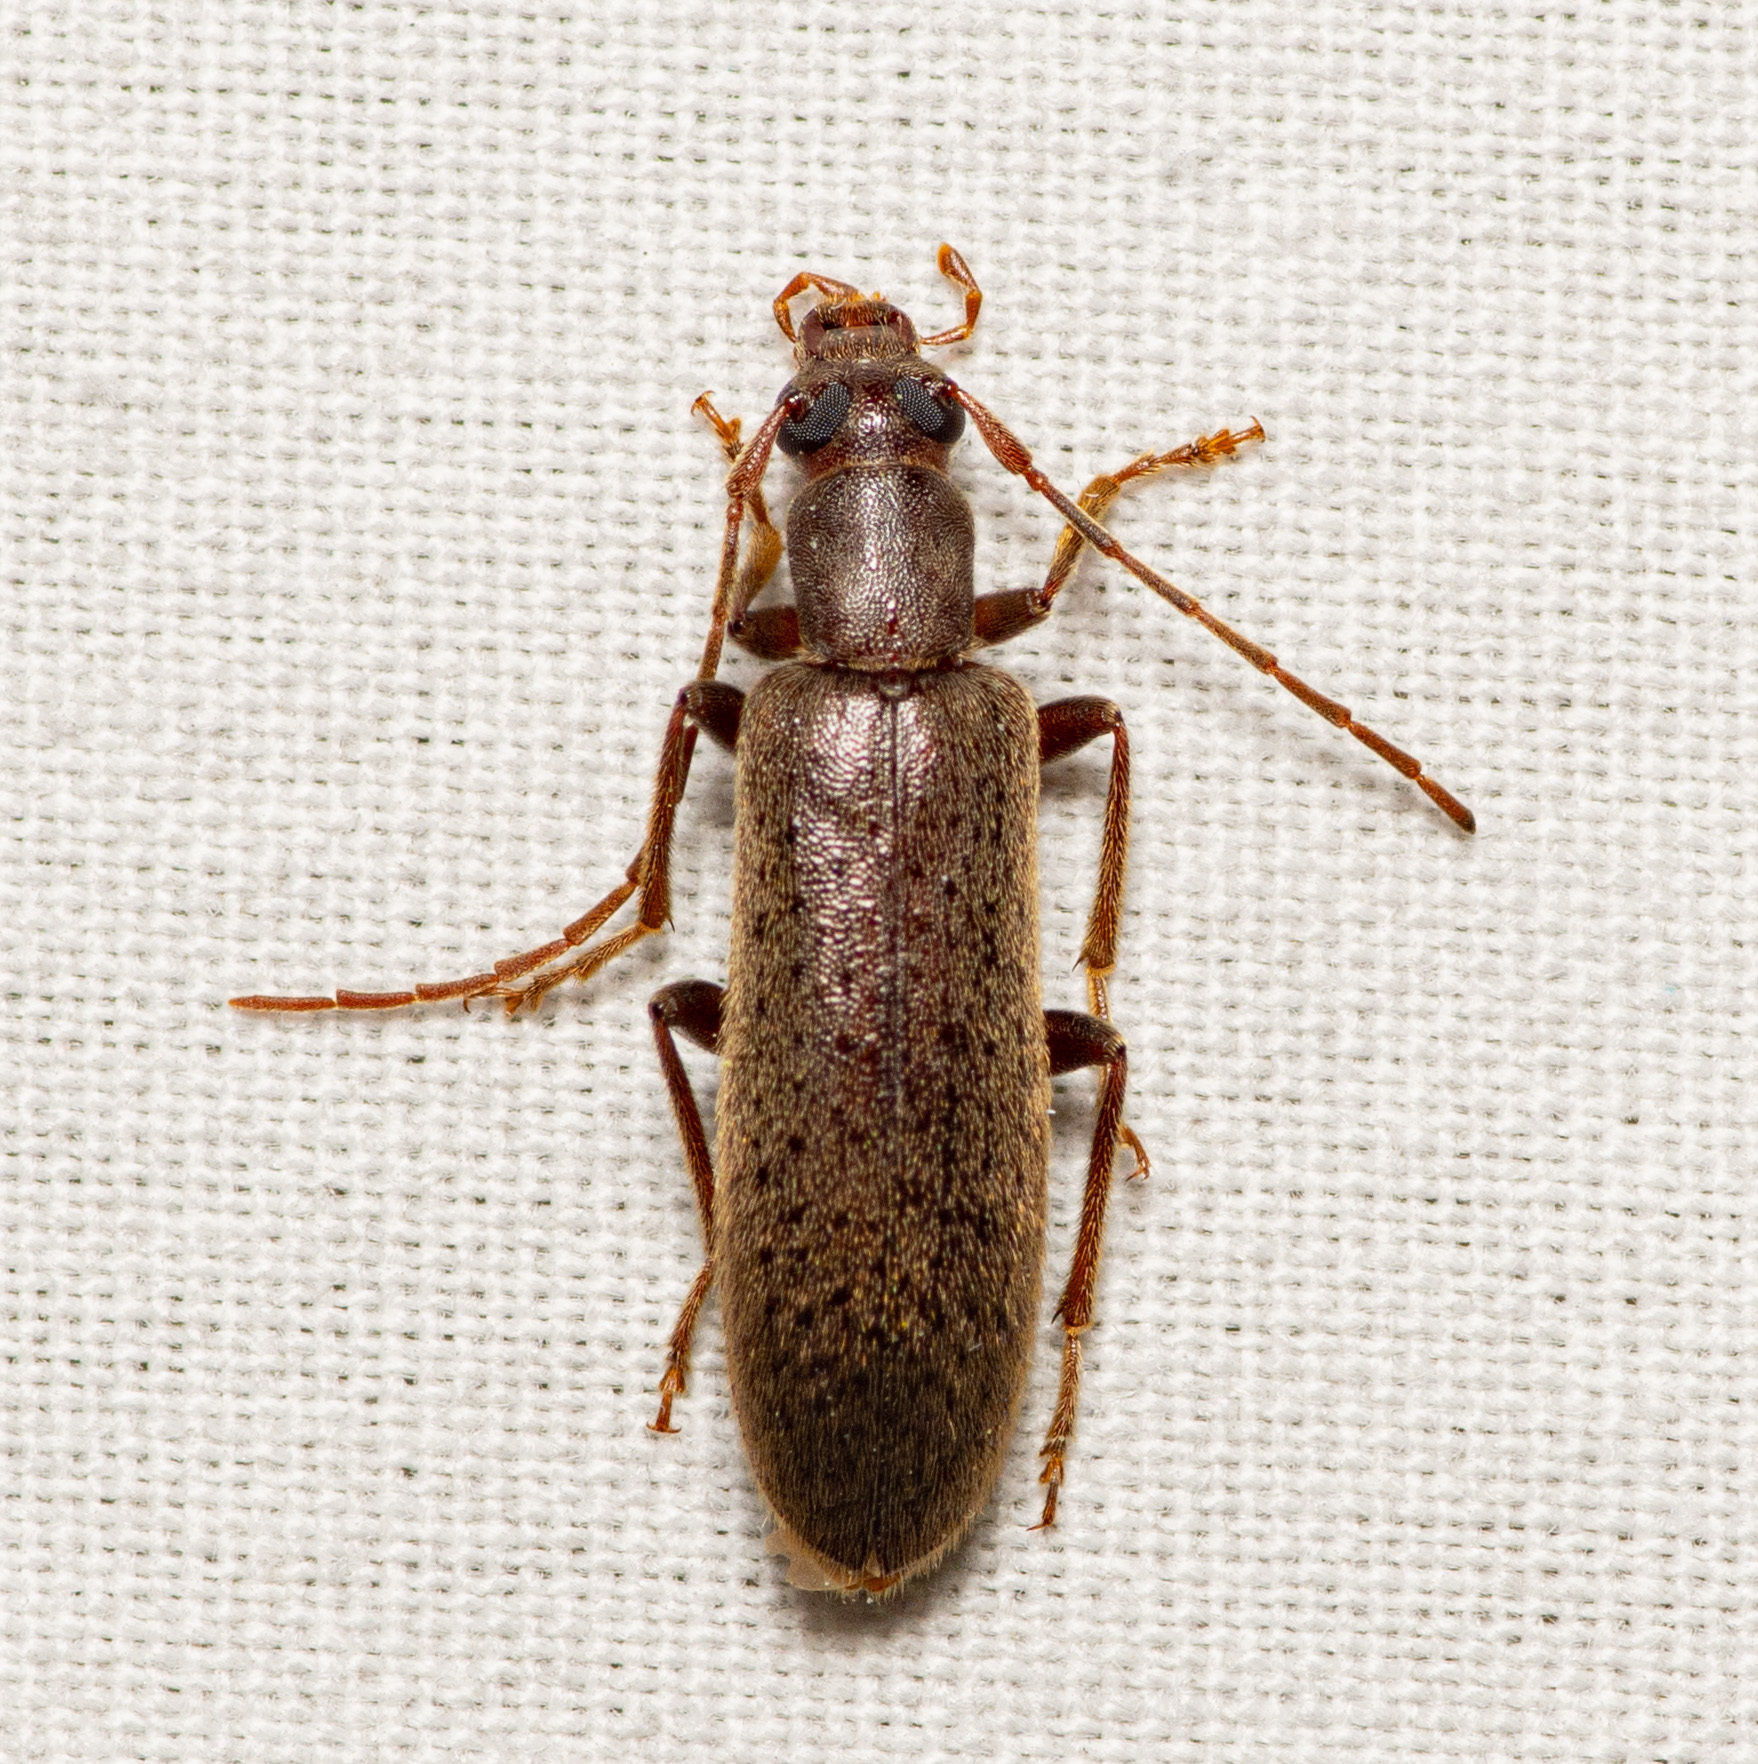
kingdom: Animalia
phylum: Arthropoda
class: Insecta
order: Coleoptera
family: Oedemeridae
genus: Sparedrus
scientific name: Sparedrus aspersus
